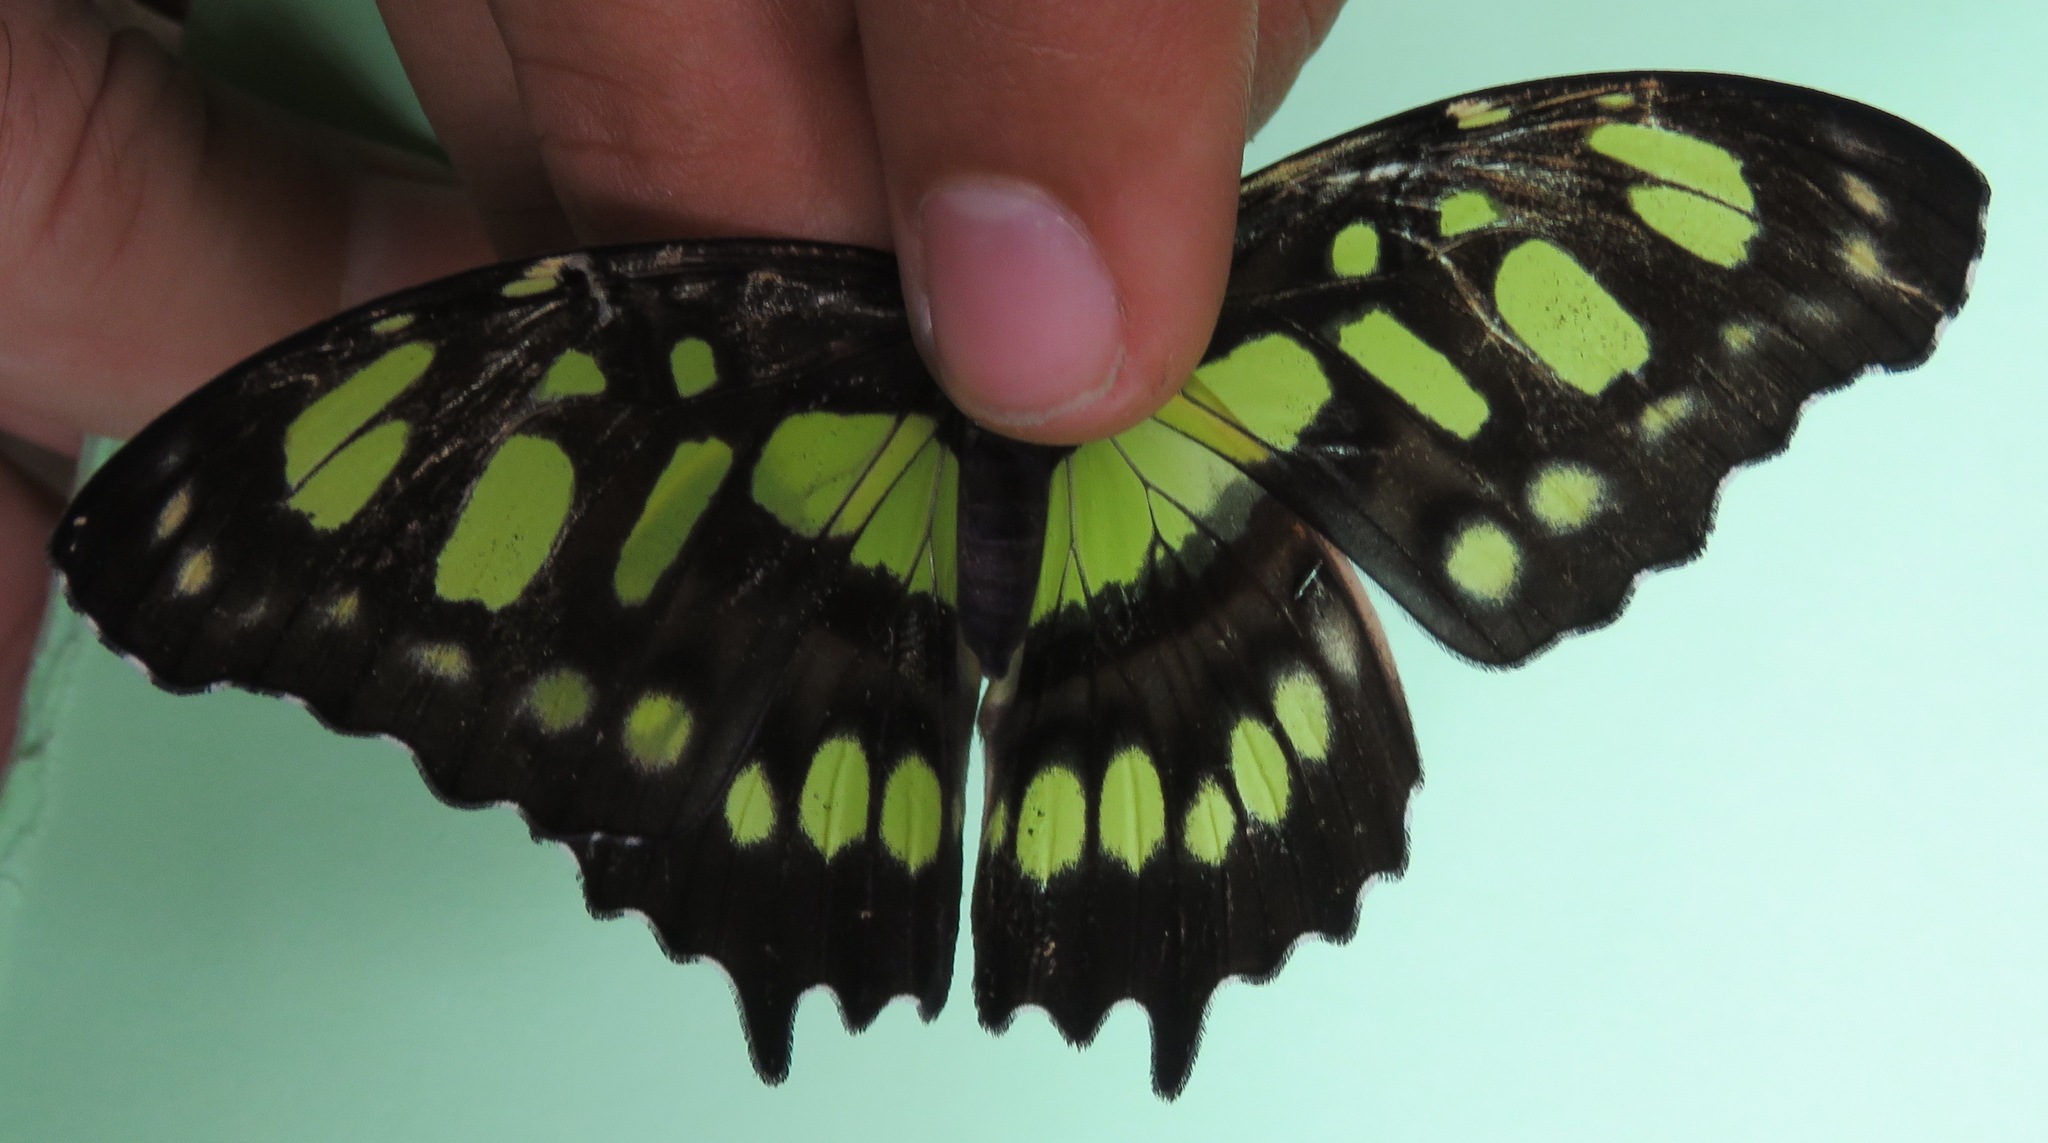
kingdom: Animalia
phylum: Arthropoda
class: Insecta
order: Lepidoptera
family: Nymphalidae
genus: Siproeta
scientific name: Siproeta stelenes
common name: Malachite
